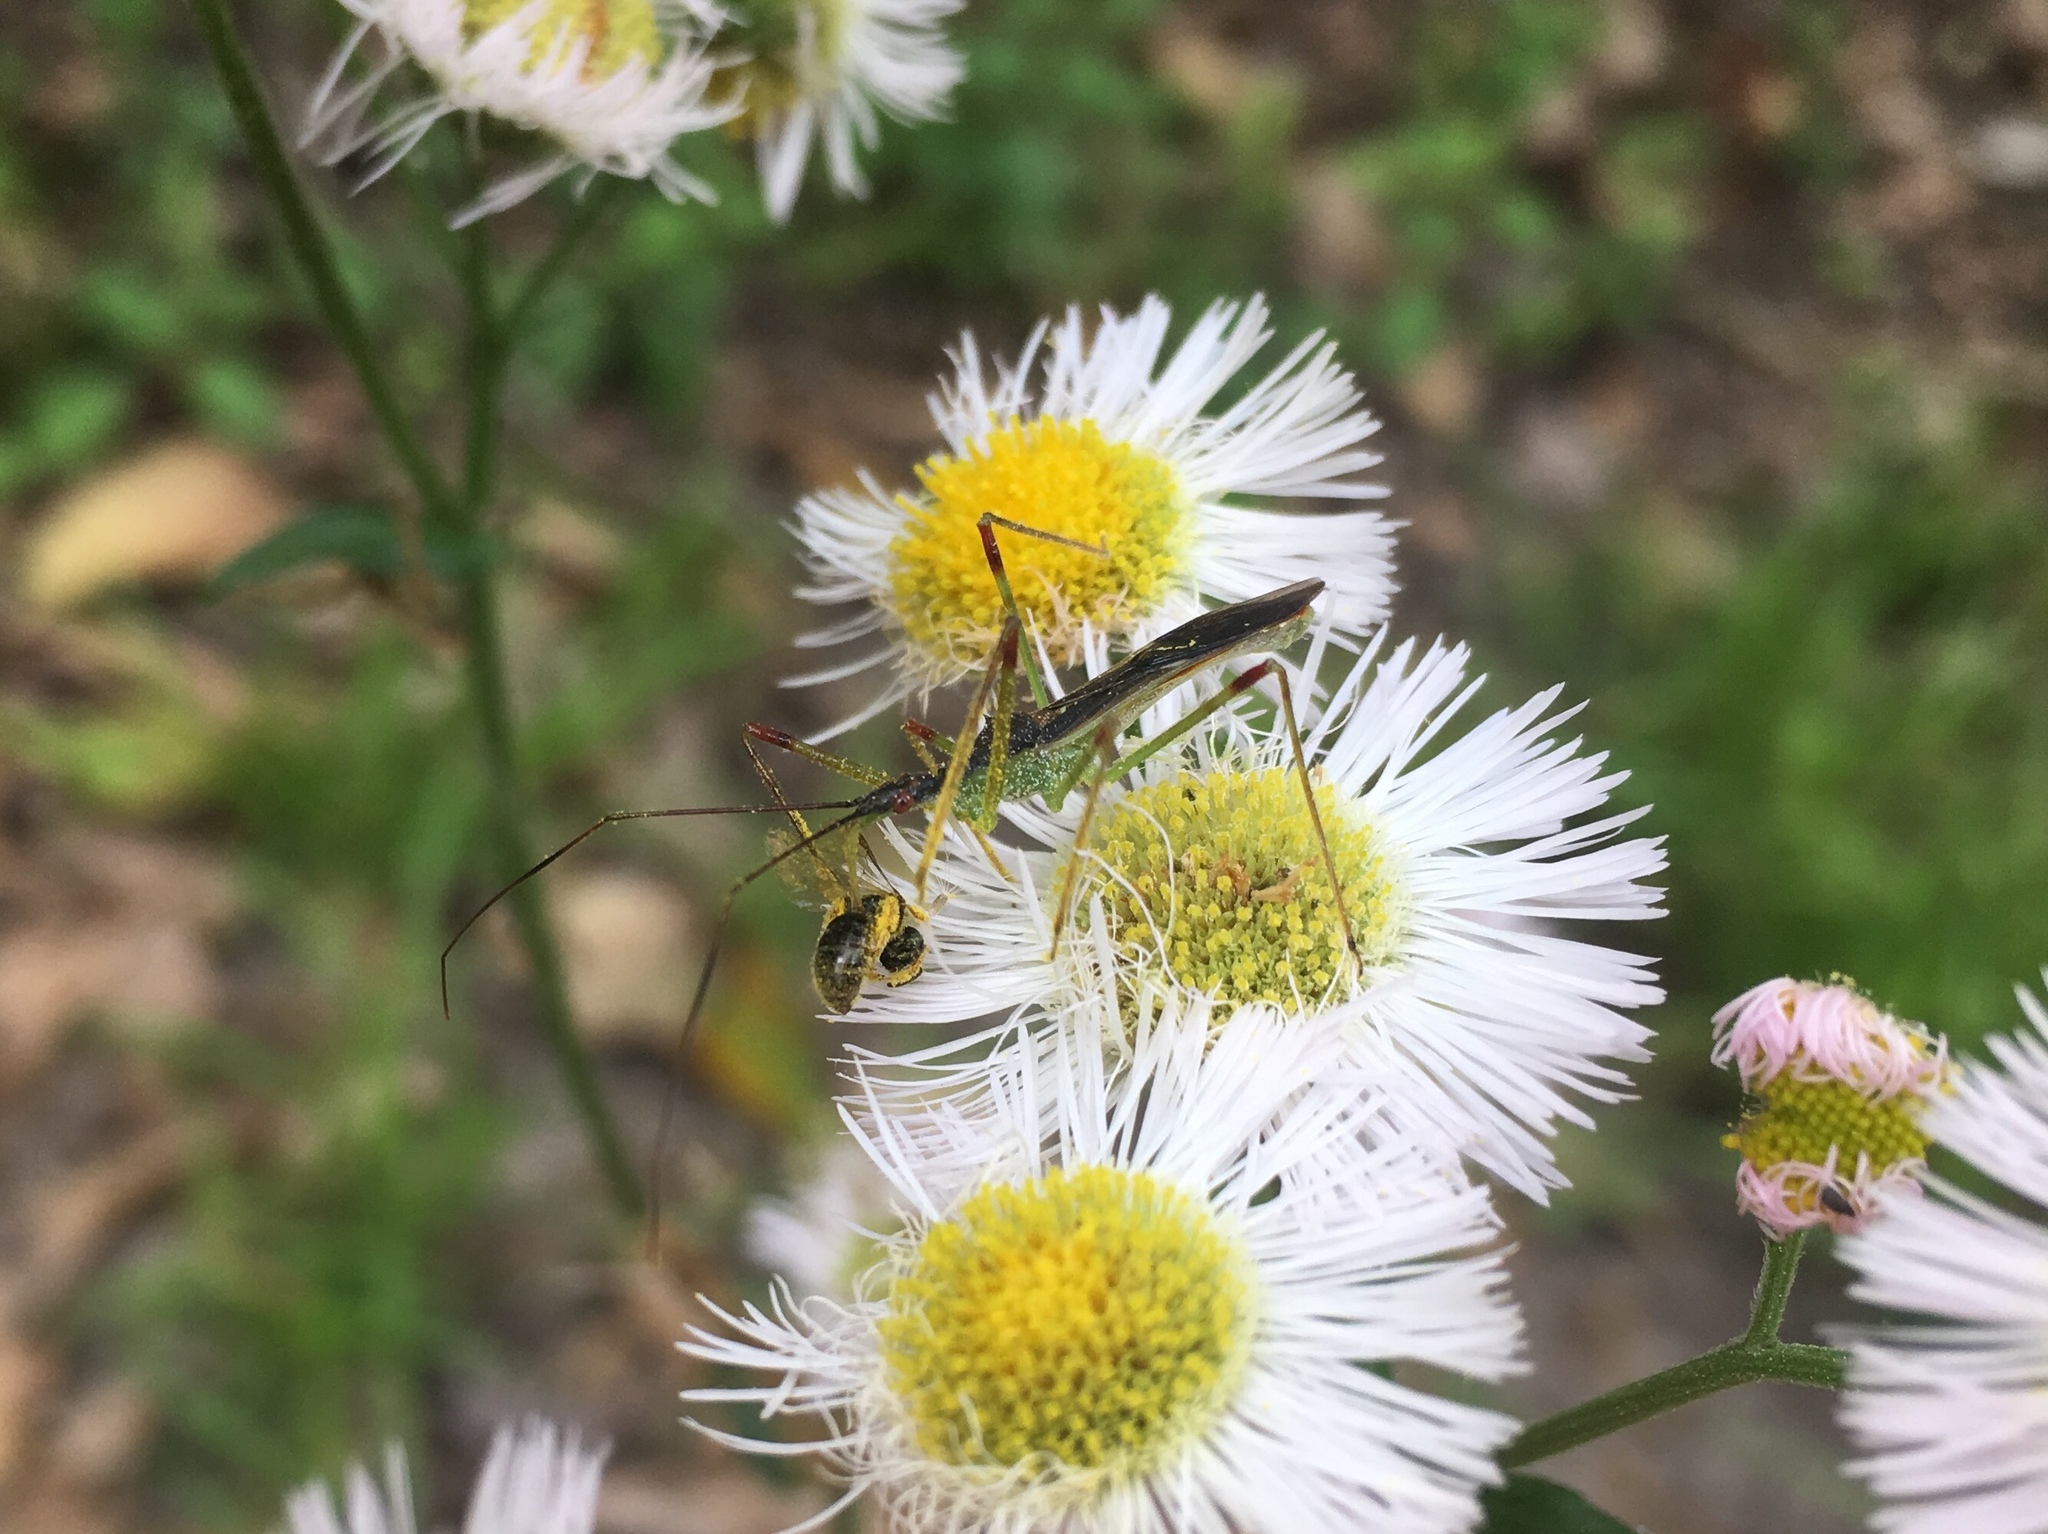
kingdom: Animalia
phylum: Arthropoda
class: Insecta
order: Hemiptera
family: Reduviidae
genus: Zelus
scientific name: Zelus luridus
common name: Pale green assassin bug
